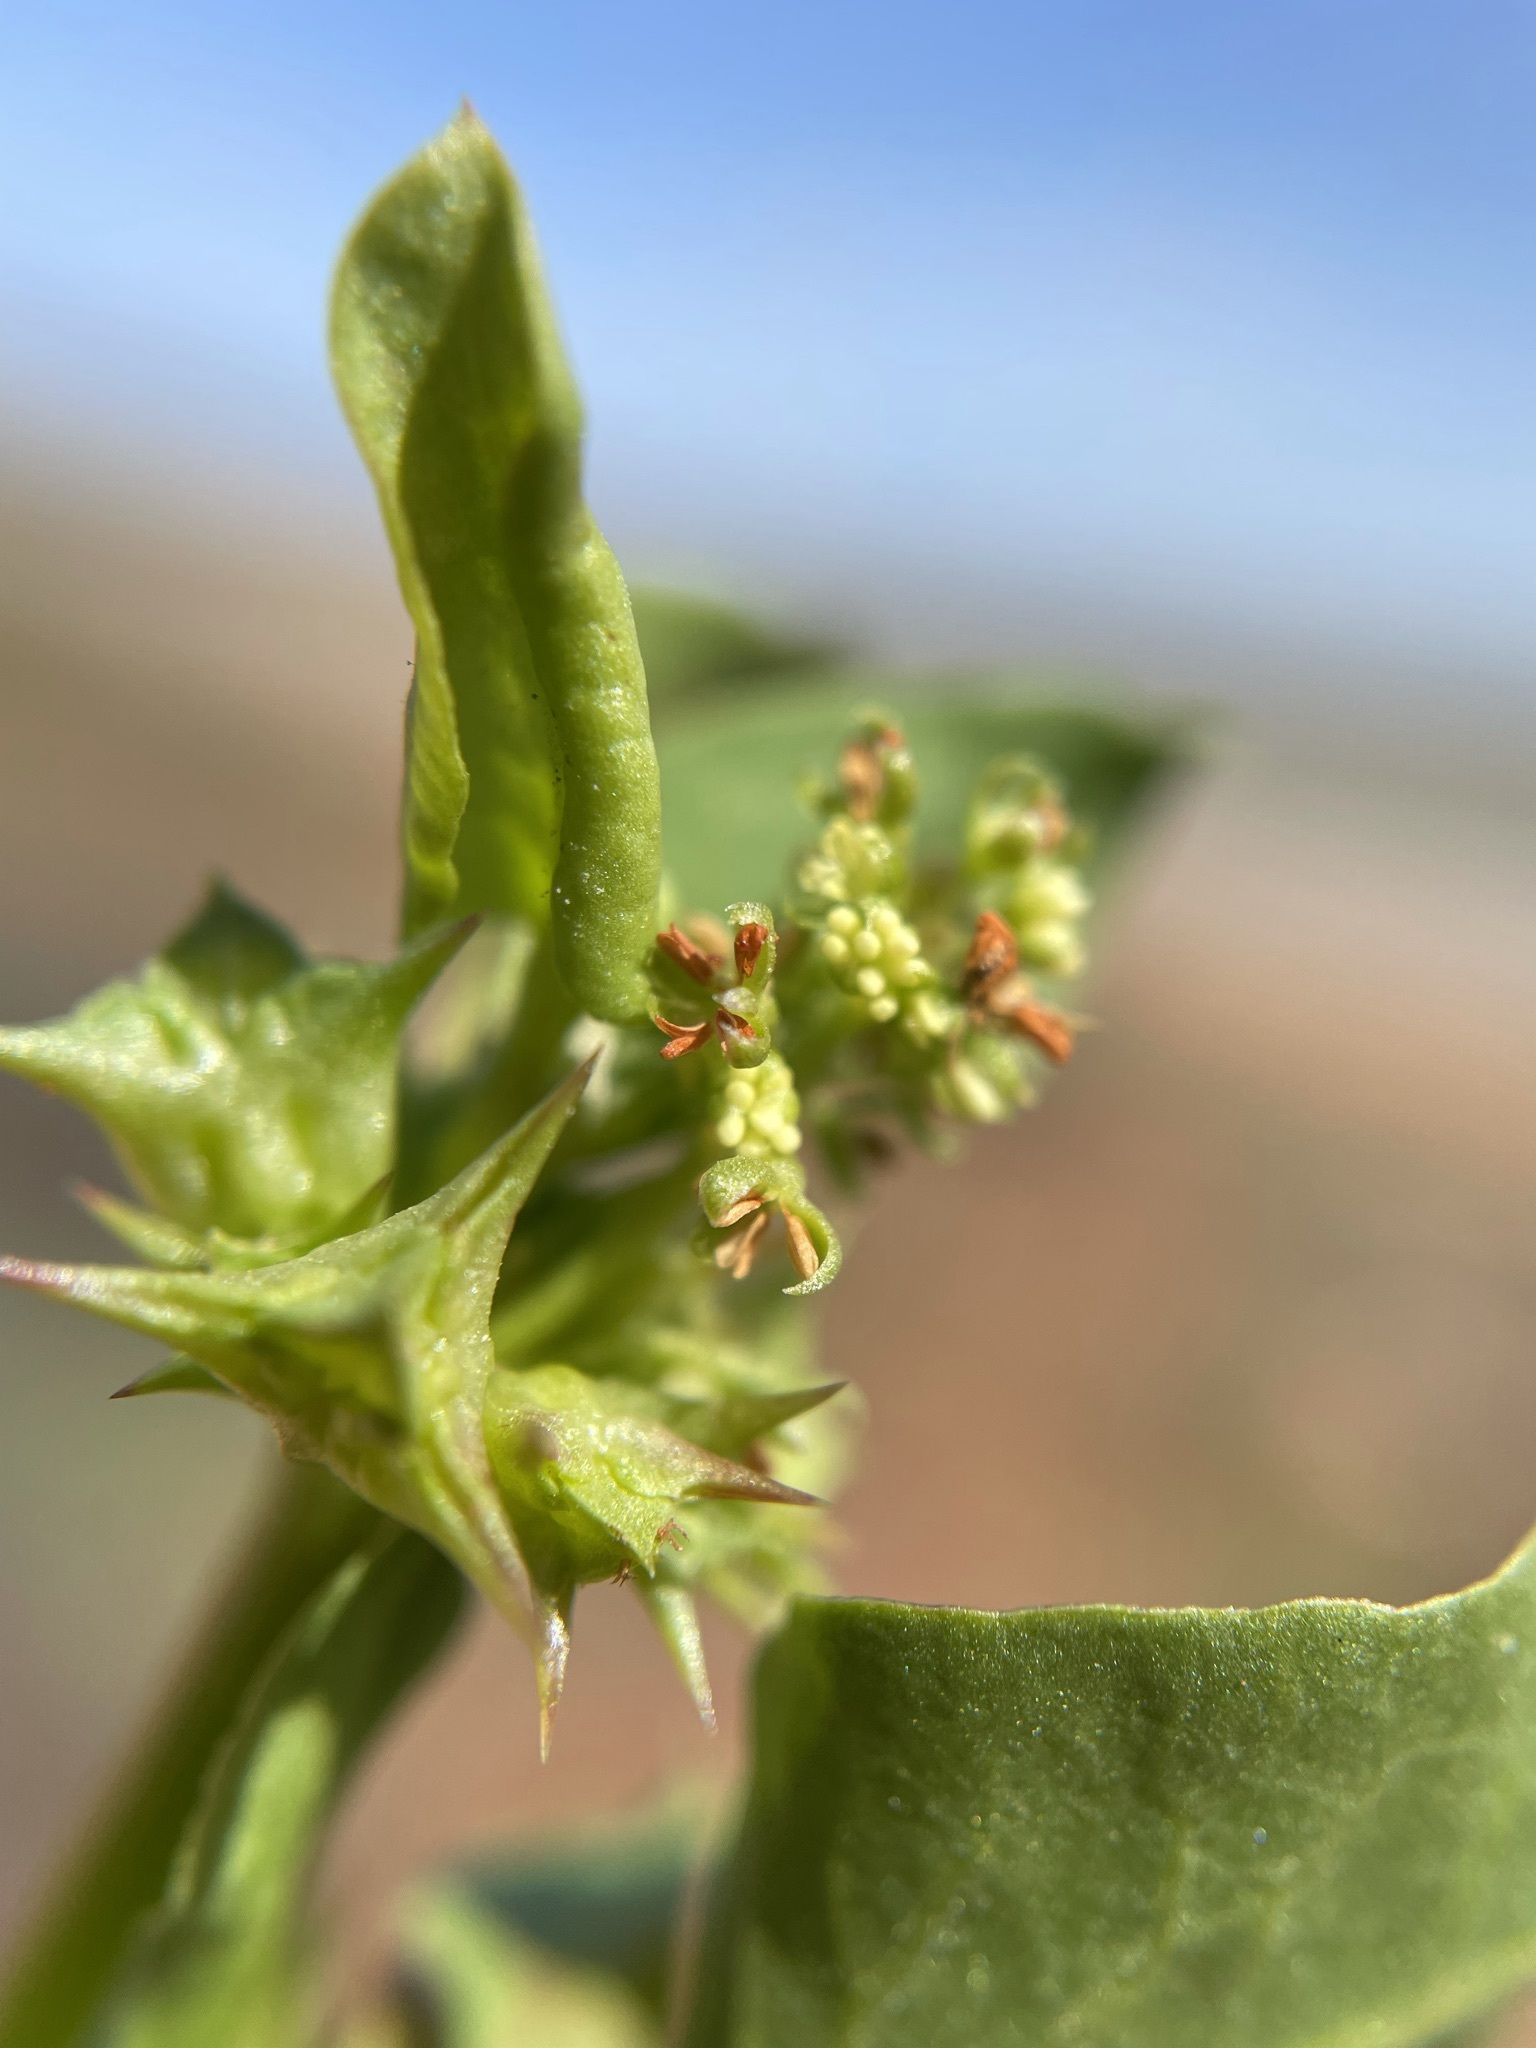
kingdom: Plantae
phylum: Tracheophyta
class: Magnoliopsida
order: Caryophyllales
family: Polygonaceae
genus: Rumex
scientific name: Rumex hypogaeus
